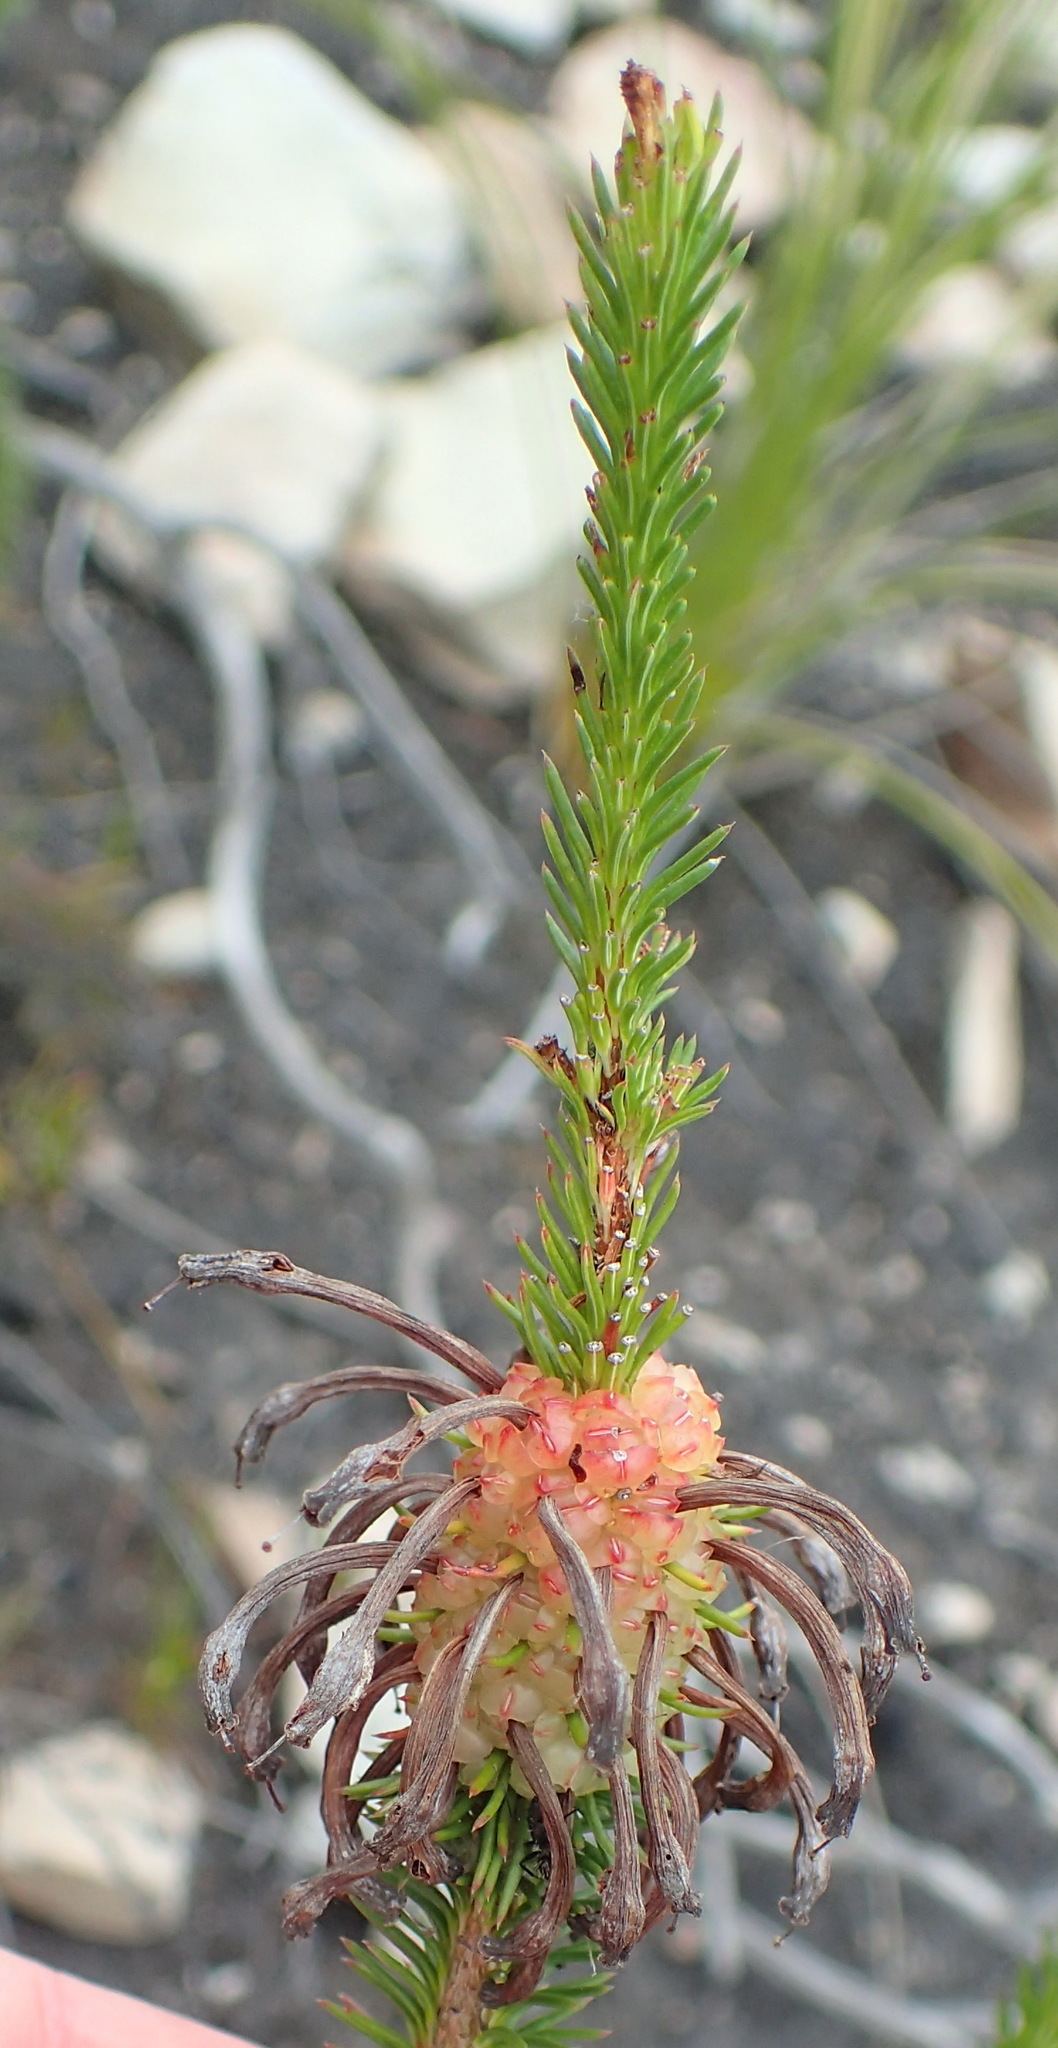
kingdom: Plantae
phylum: Tracheophyta
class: Magnoliopsida
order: Ericales
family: Ericaceae
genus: Erica
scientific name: Erica sessiliflora
